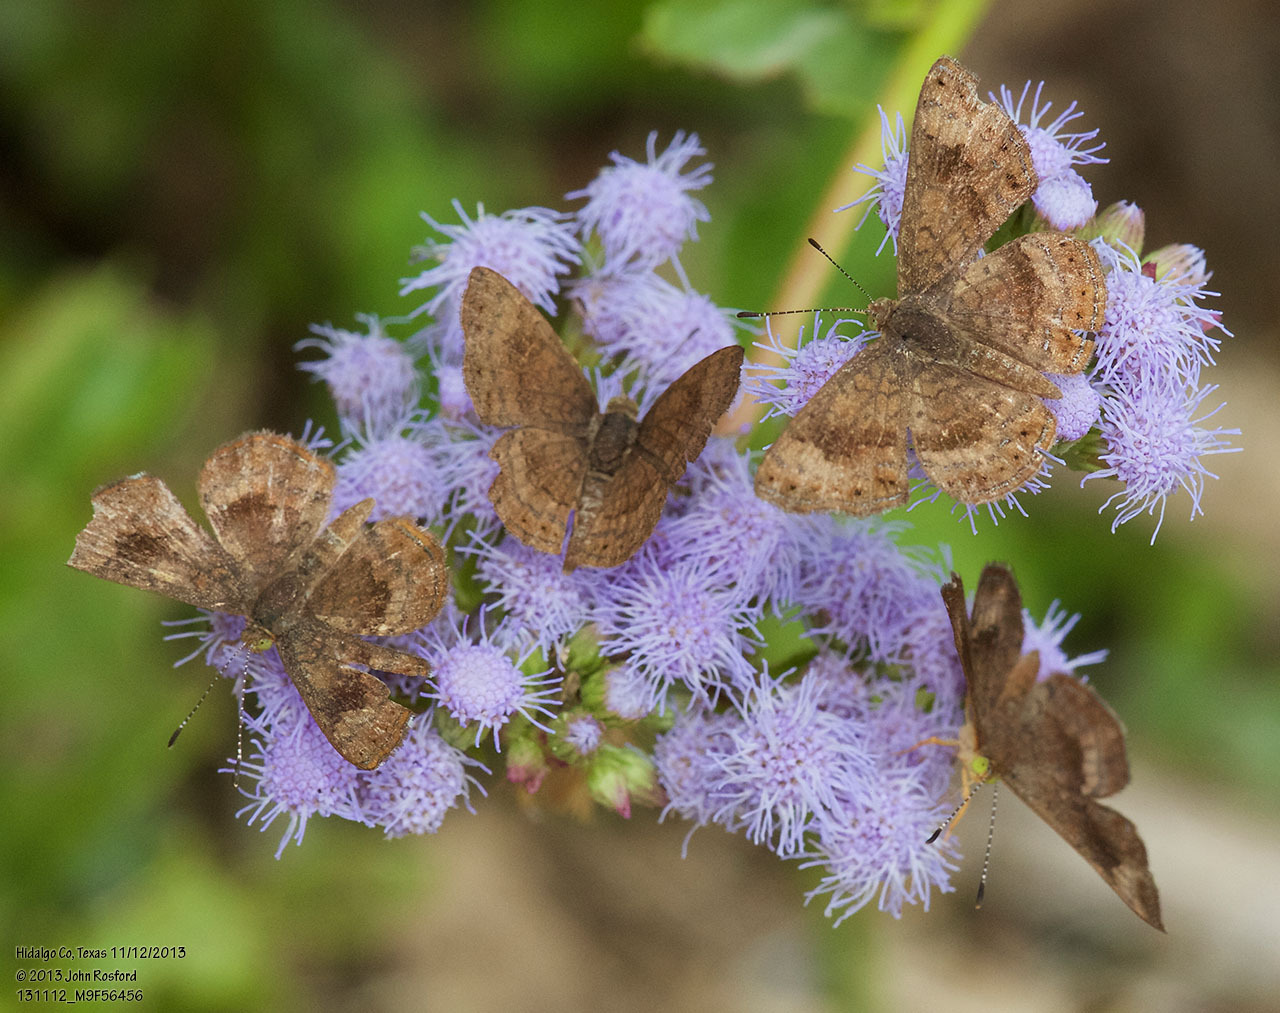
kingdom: Animalia
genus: Calephelis
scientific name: Calephelis nemesis
